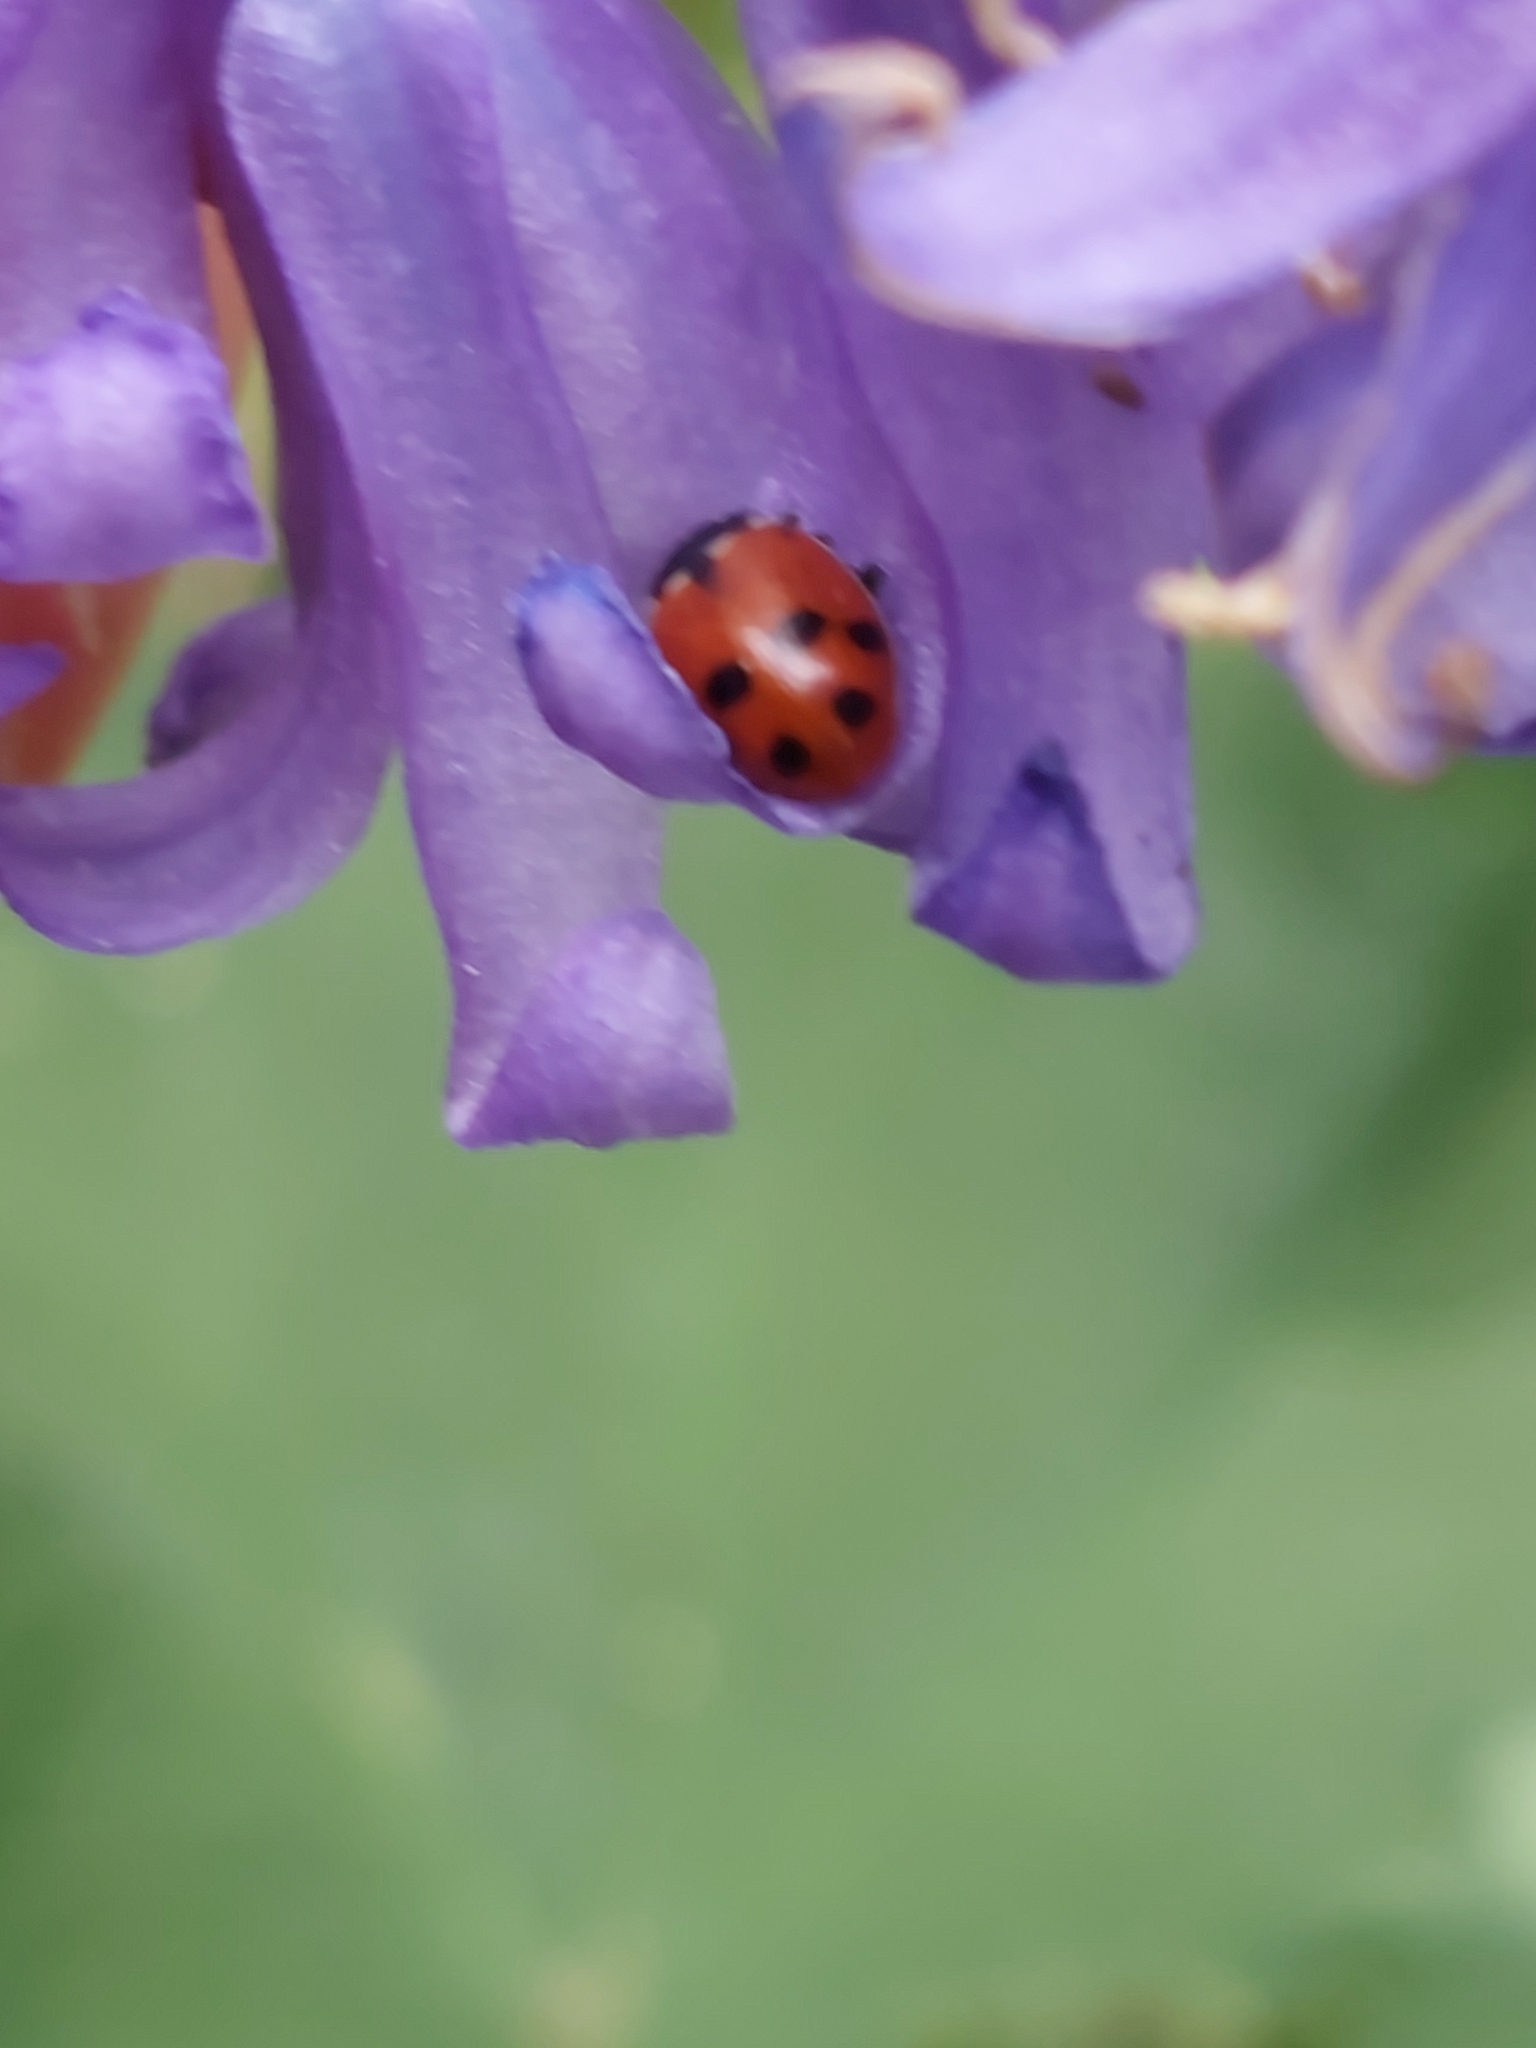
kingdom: Animalia
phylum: Arthropoda
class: Insecta
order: Coleoptera
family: Coccinellidae
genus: Hippodamia
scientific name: Hippodamia variegata
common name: Ladybird beetle
